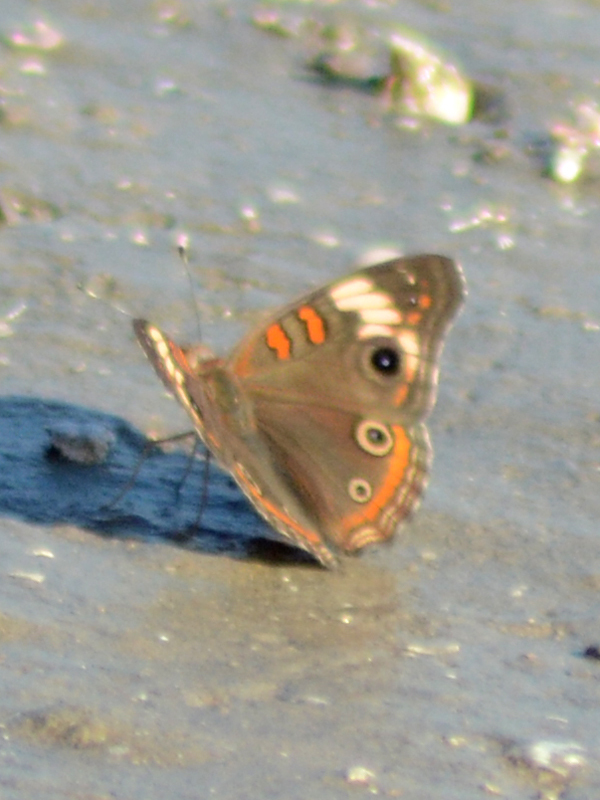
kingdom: Animalia
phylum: Arthropoda
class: Insecta
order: Lepidoptera
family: Nymphalidae
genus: Junonia
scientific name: Junonia pacoma
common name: Pacific mangrove buckeye
